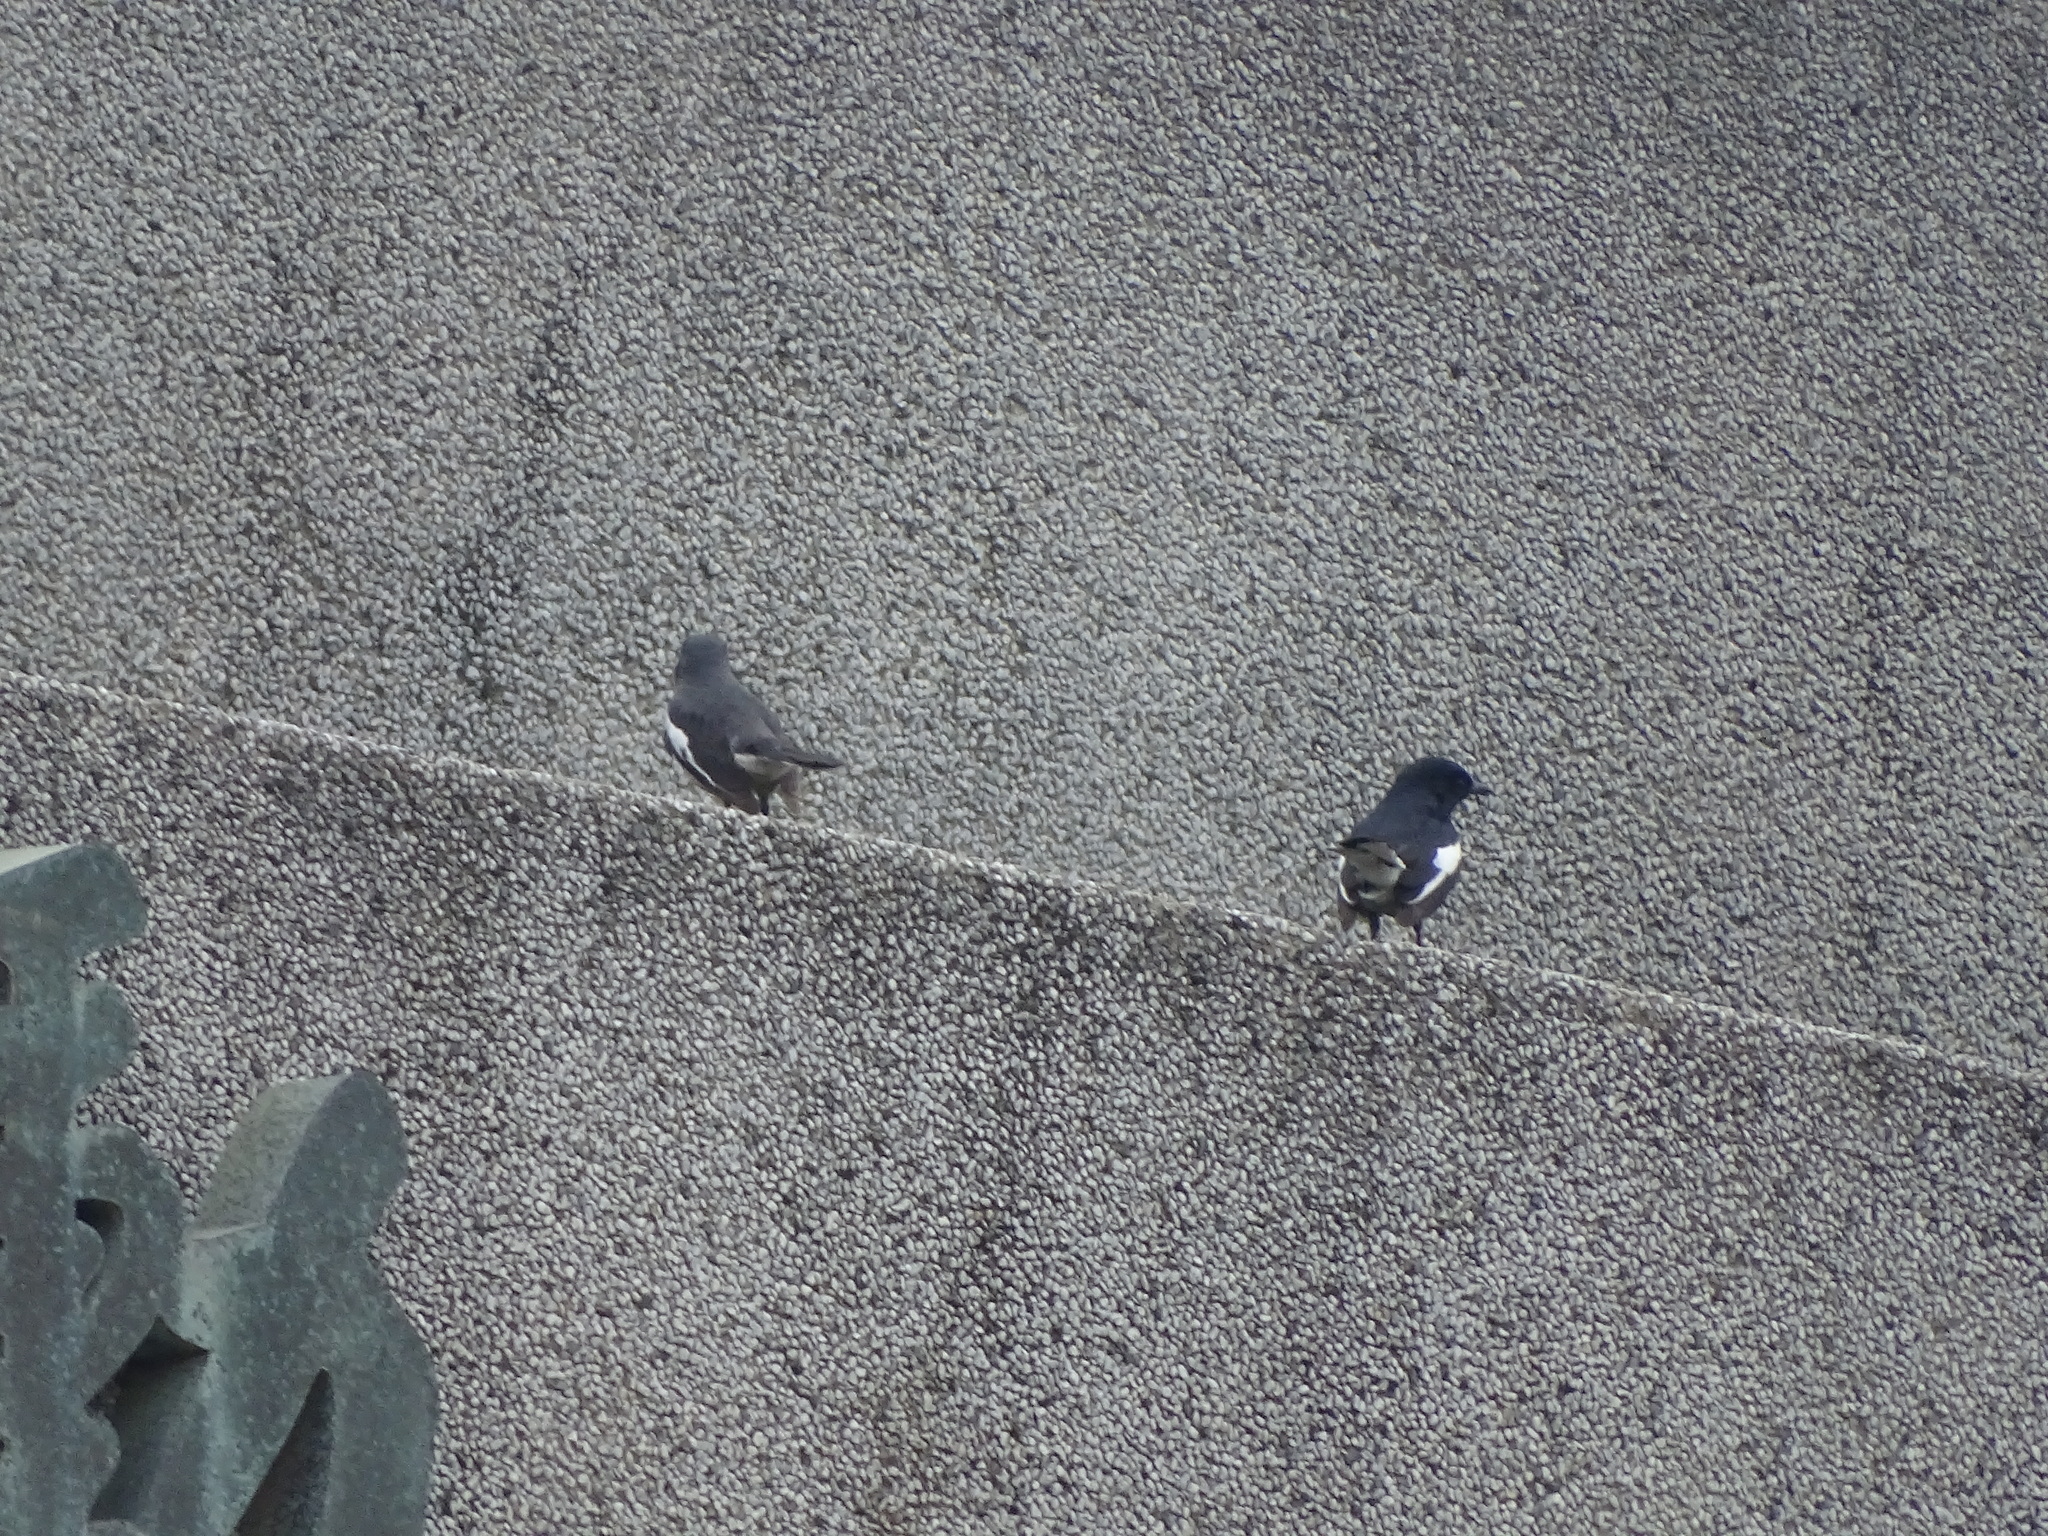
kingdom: Animalia
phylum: Chordata
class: Aves
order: Passeriformes
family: Muscicapidae
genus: Copsychus
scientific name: Copsychus saularis
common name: Oriental magpie-robin
